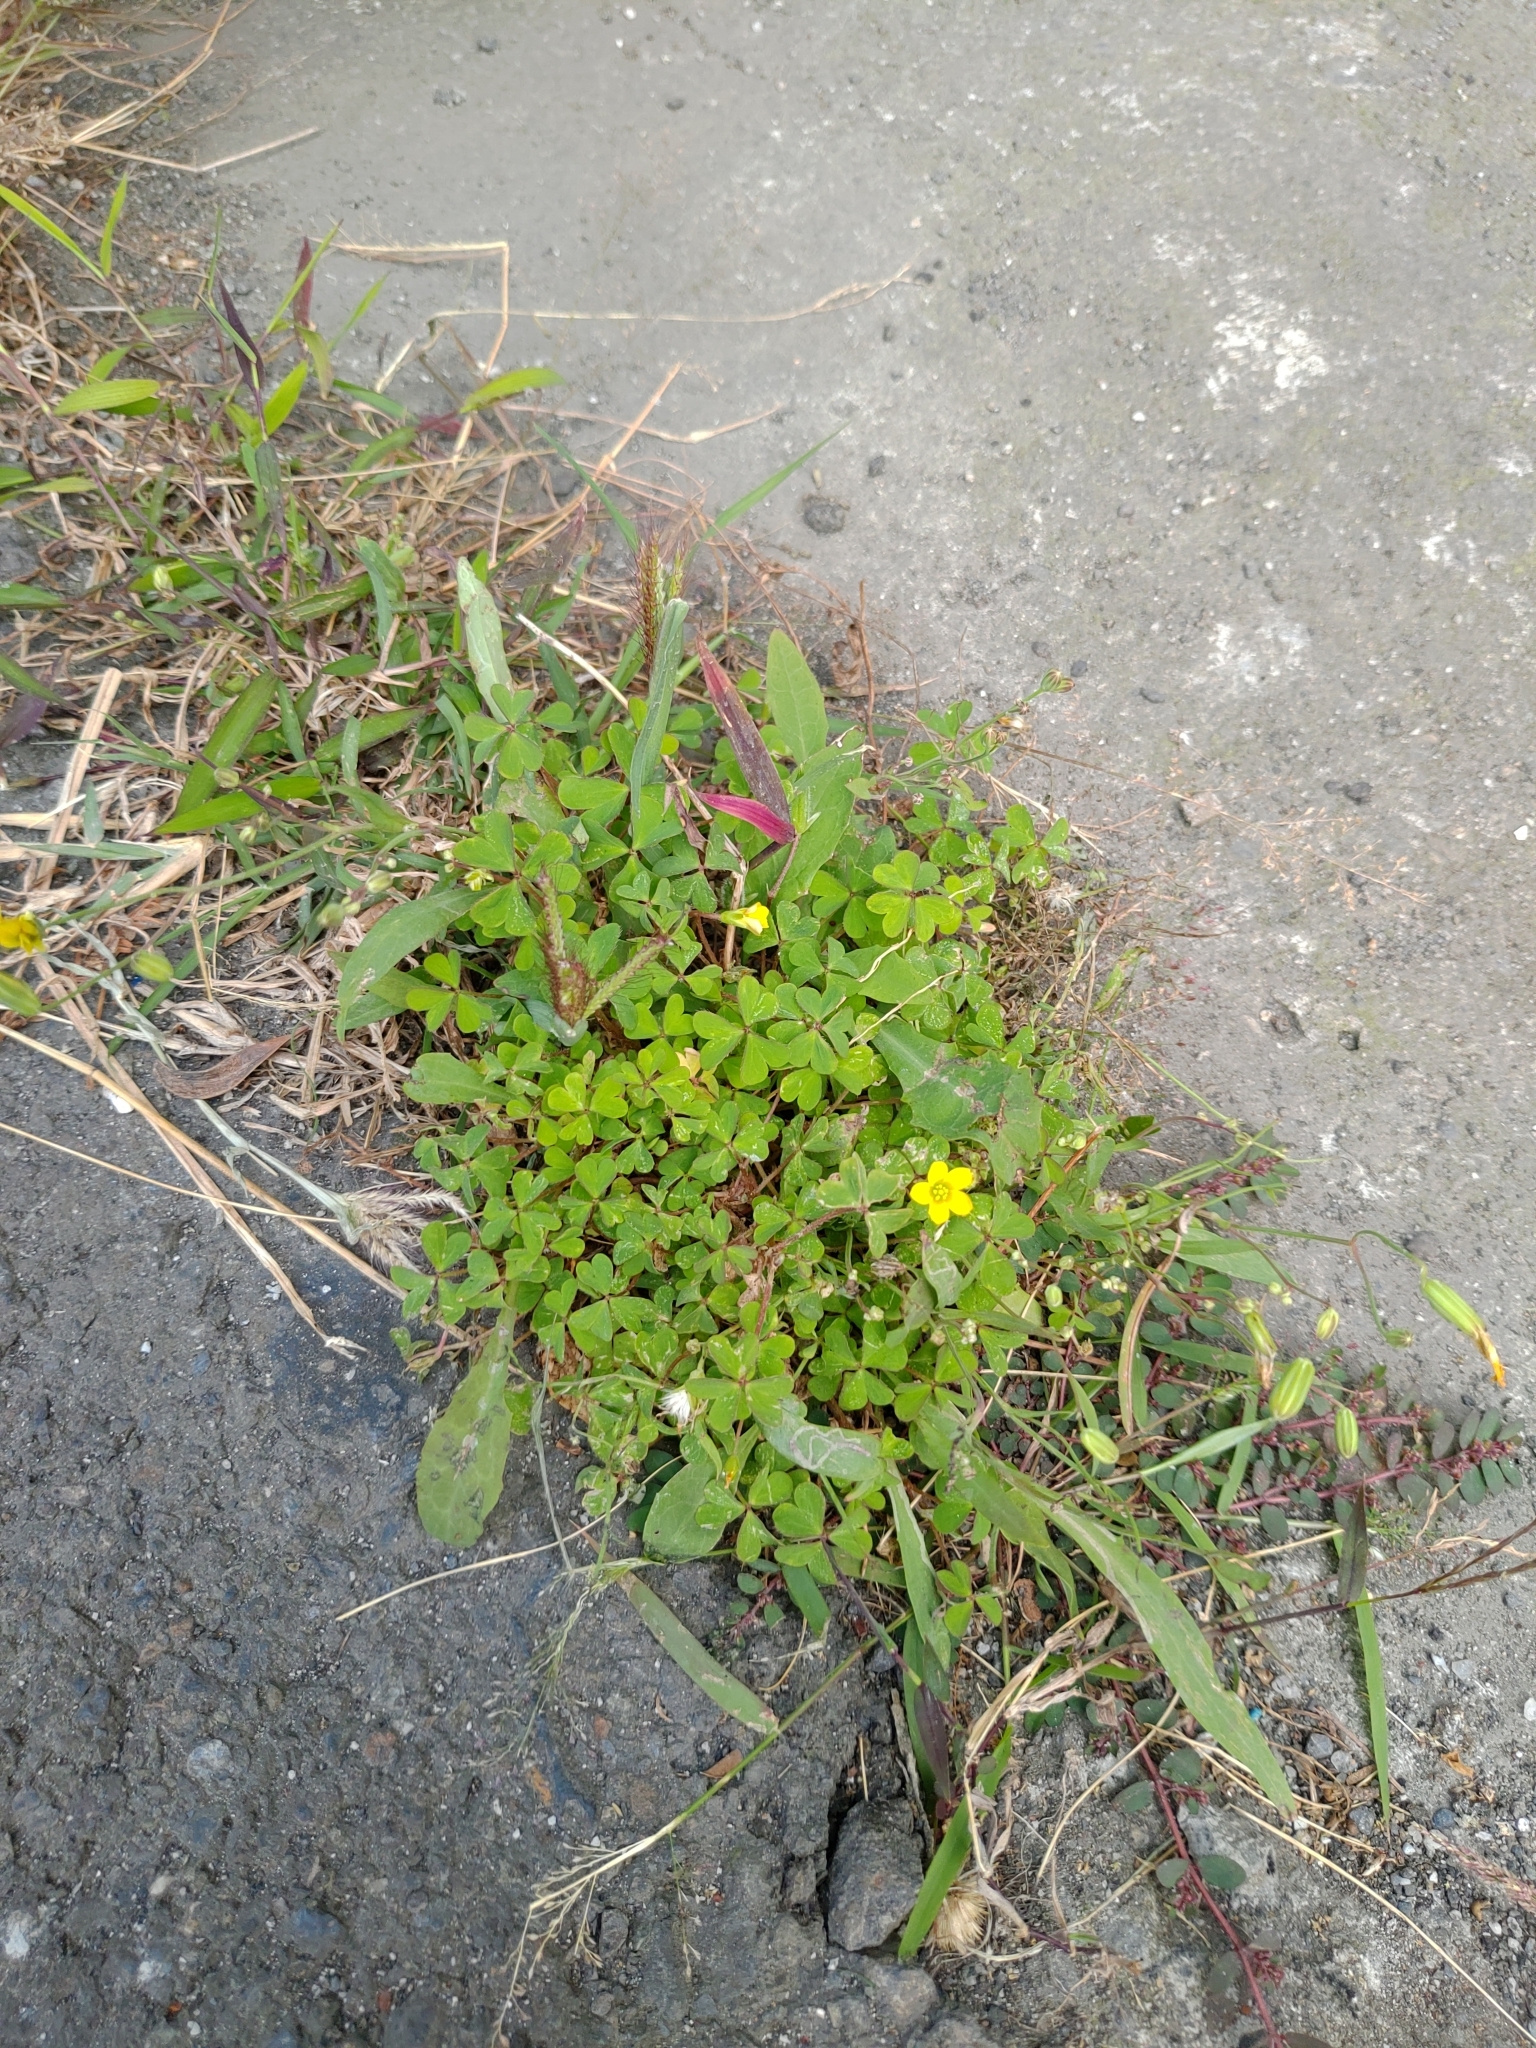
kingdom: Plantae
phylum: Tracheophyta
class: Magnoliopsida
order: Oxalidales
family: Oxalidaceae
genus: Oxalis
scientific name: Oxalis corniculata
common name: Procumbent yellow-sorrel
